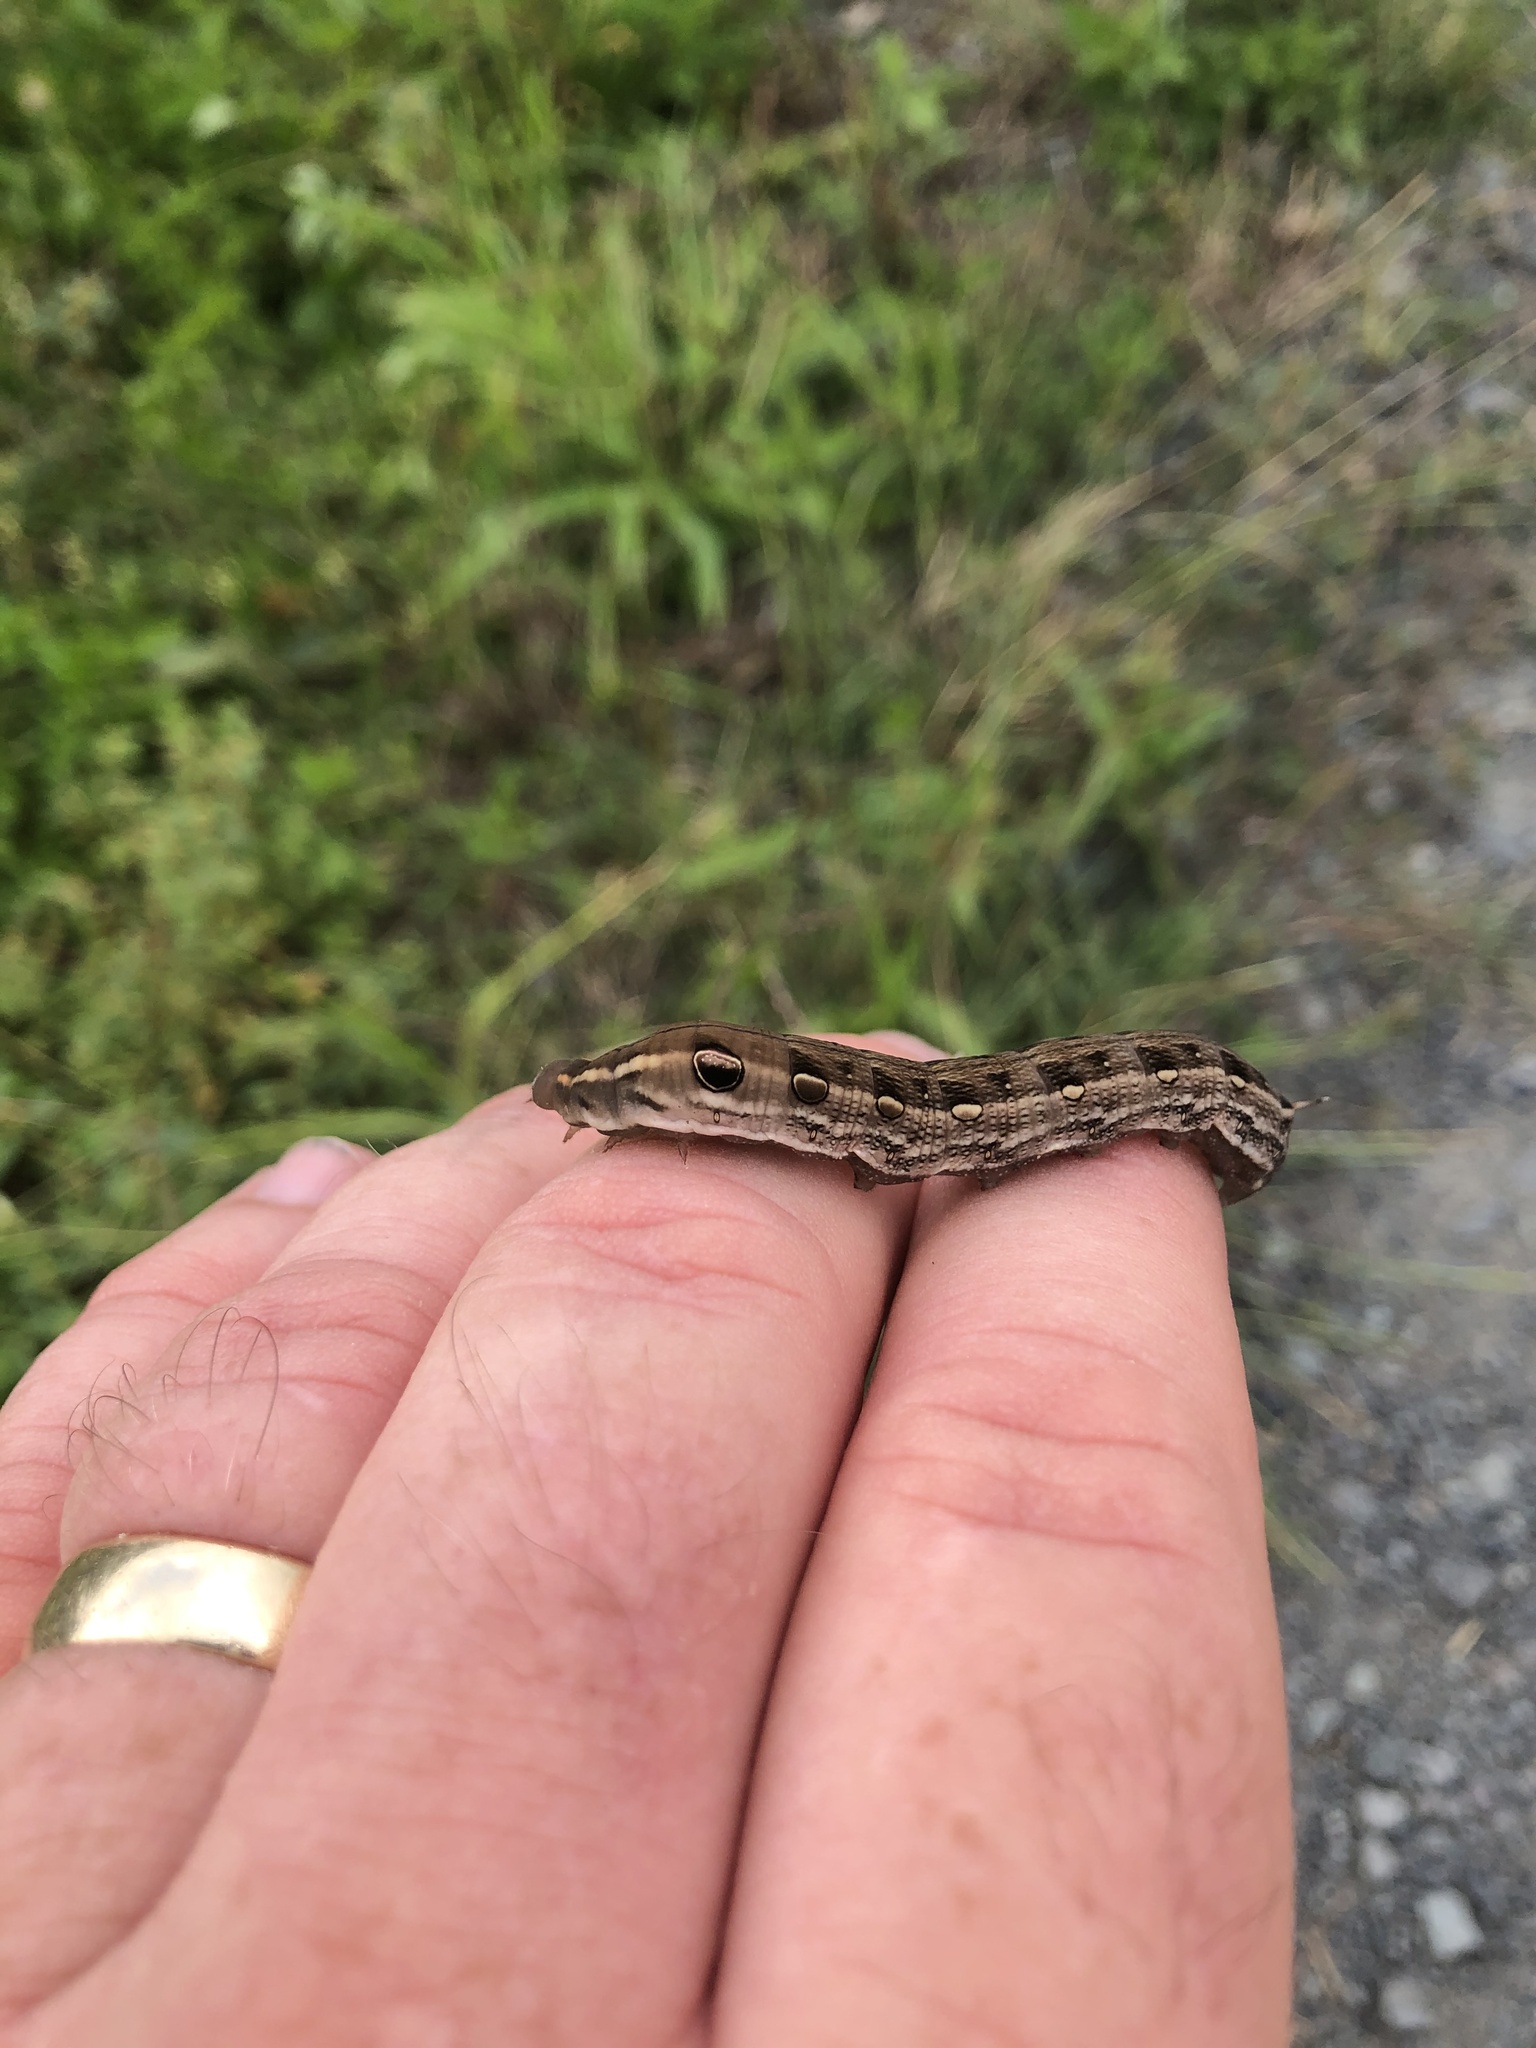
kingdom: Animalia
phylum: Arthropoda
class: Insecta
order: Lepidoptera
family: Sphingidae
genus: Hippotion
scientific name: Hippotion rosetta
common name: Vine hawk moth
